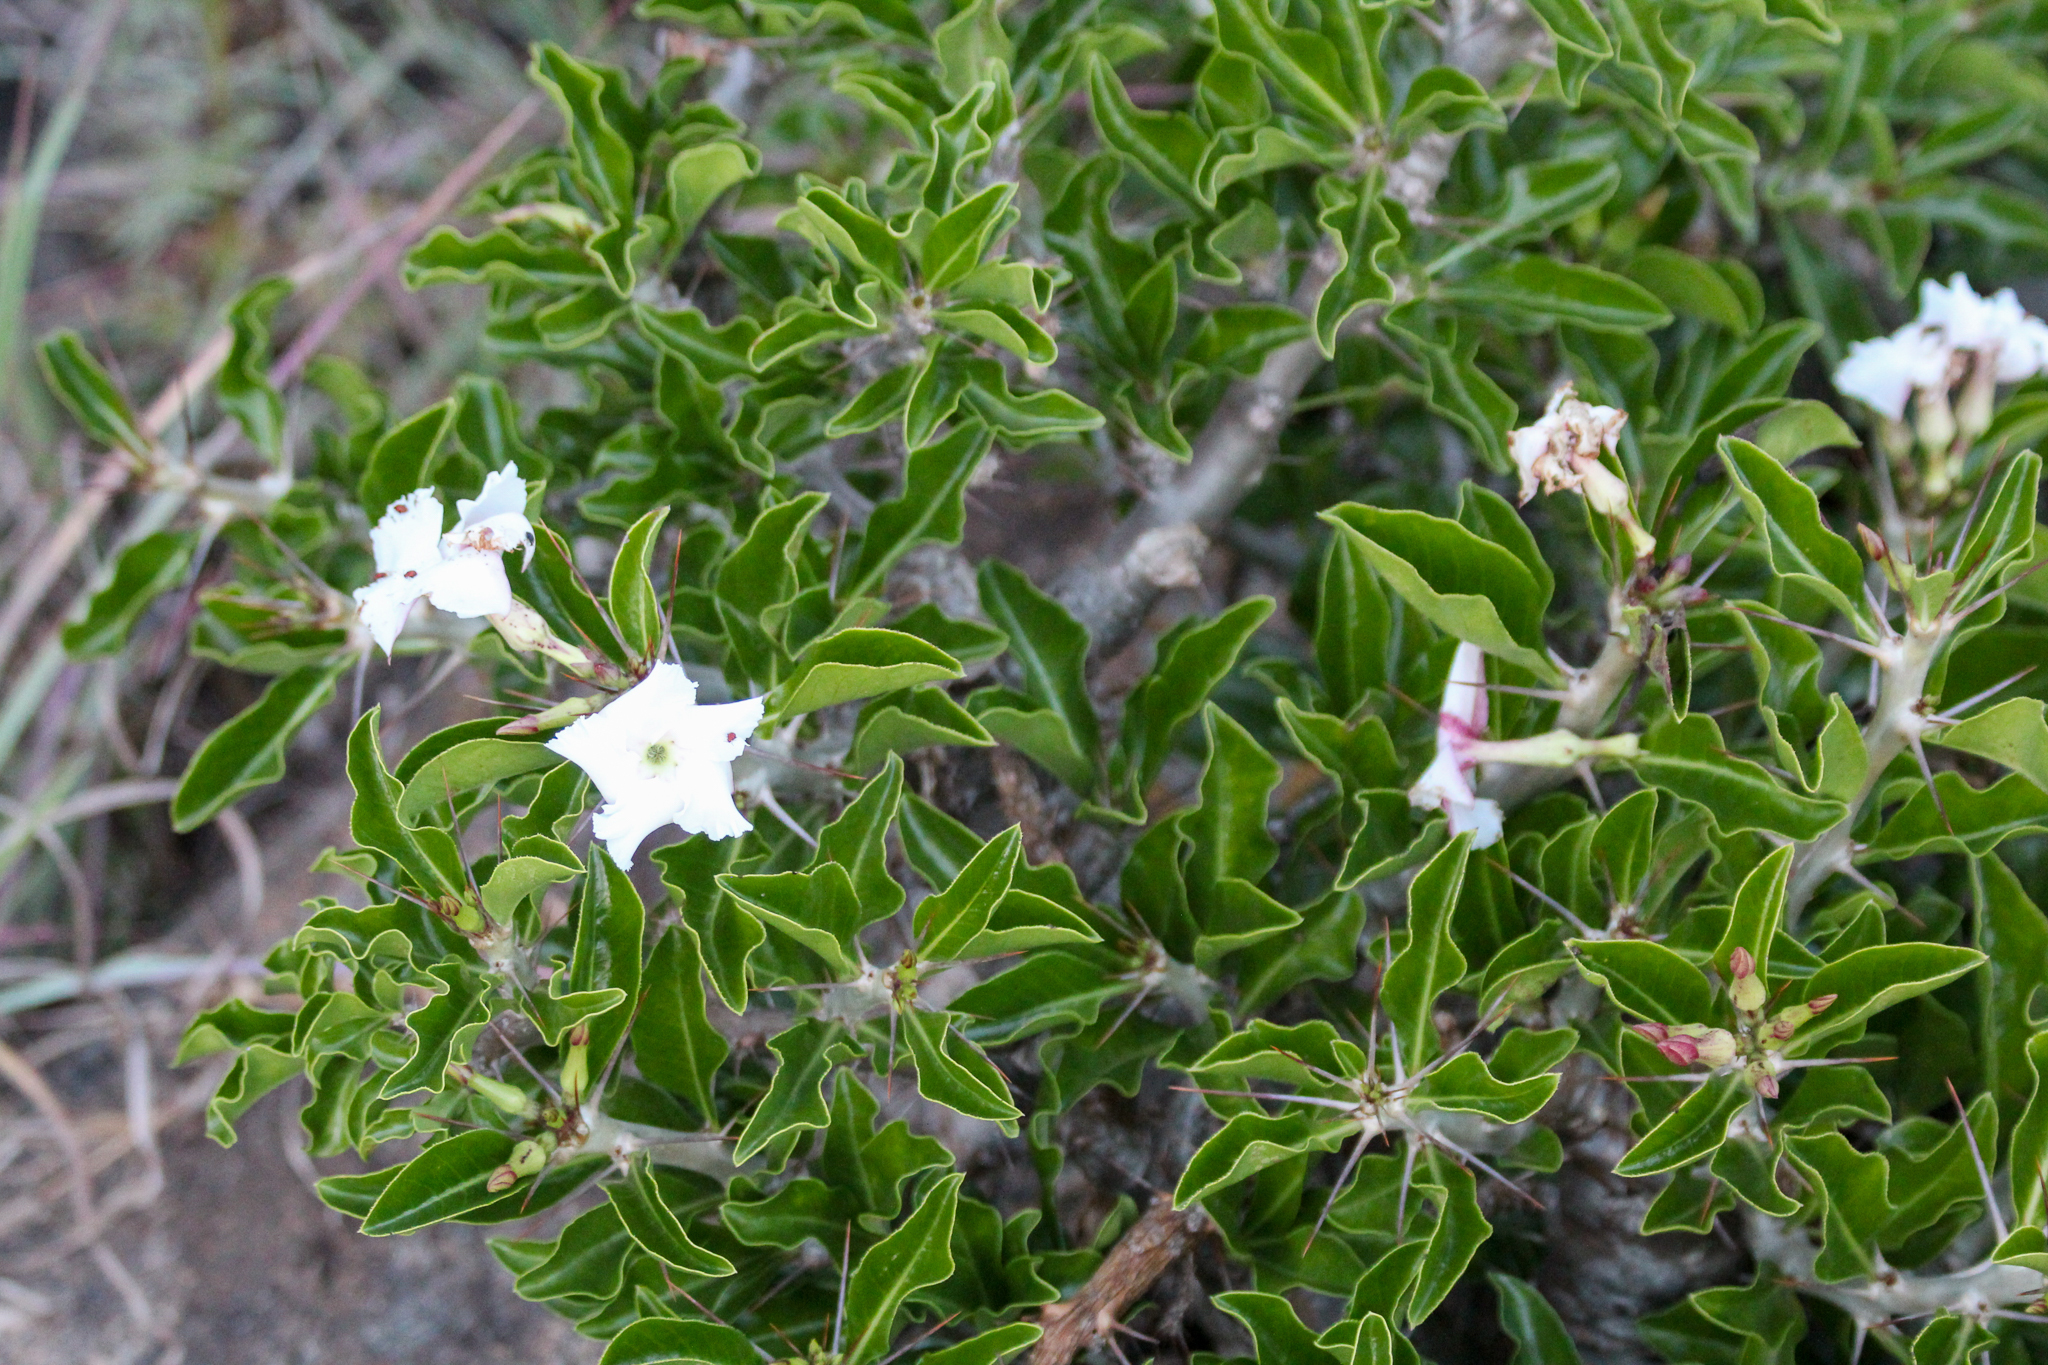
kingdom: Plantae
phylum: Tracheophyta
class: Magnoliopsida
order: Gentianales
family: Apocynaceae
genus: Pachypodium
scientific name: Pachypodium saundersii
